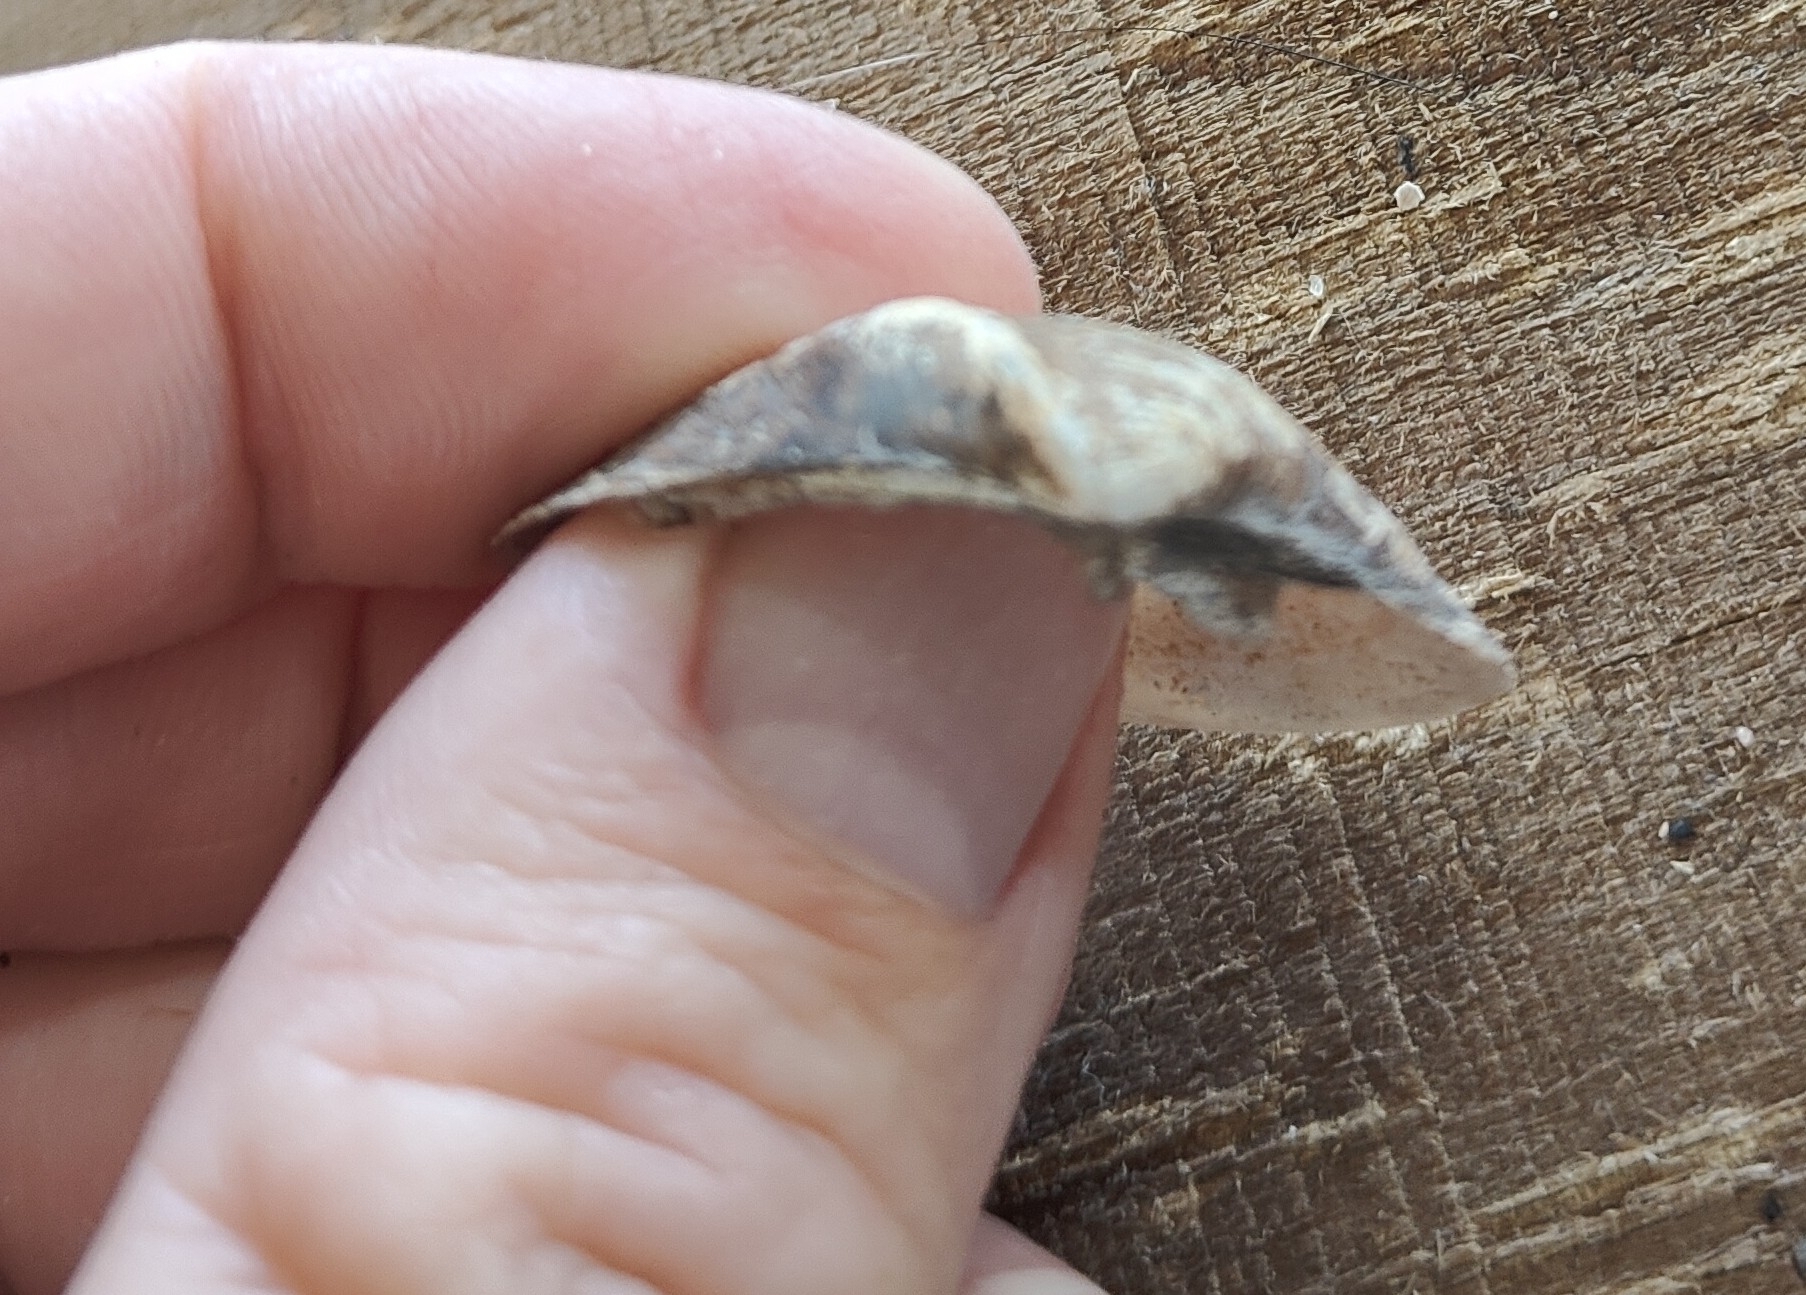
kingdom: Animalia
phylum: Mollusca
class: Bivalvia
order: Unionida
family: Unionidae
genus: Truncilla
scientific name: Truncilla truncata
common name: Deertoe
